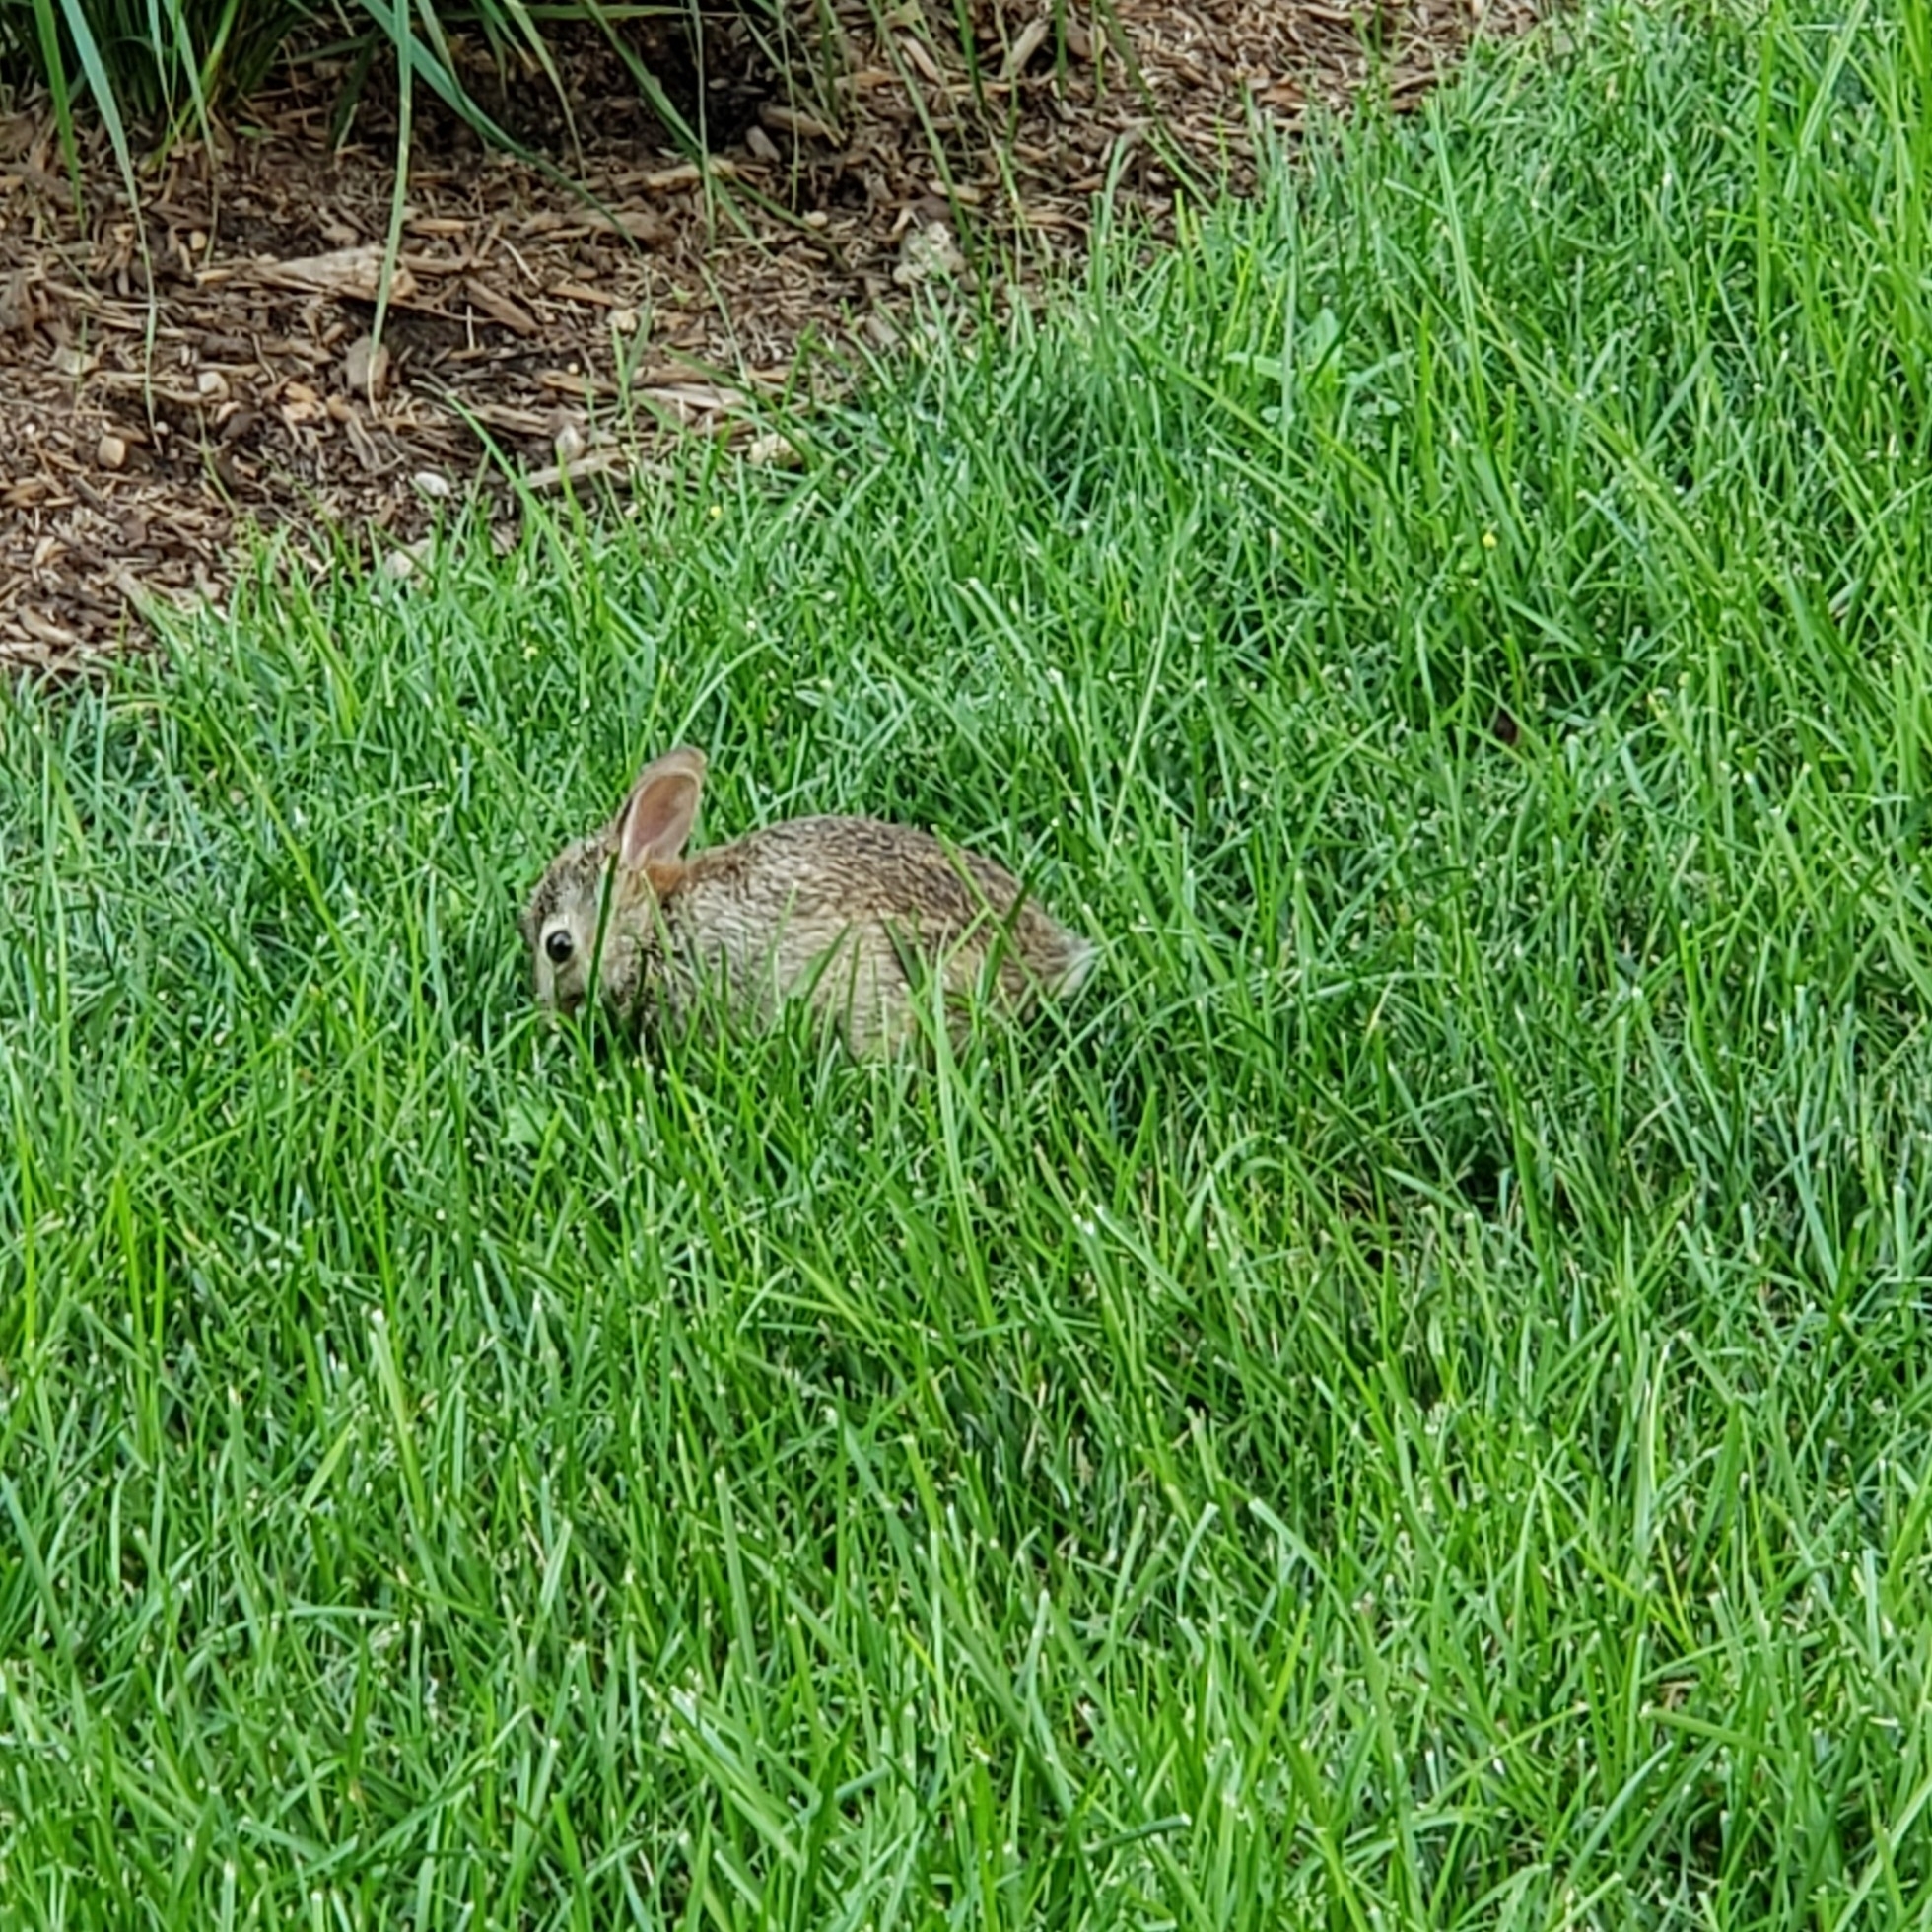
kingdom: Animalia
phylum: Chordata
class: Mammalia
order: Lagomorpha
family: Leporidae
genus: Sylvilagus
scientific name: Sylvilagus floridanus
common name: Eastern cottontail
